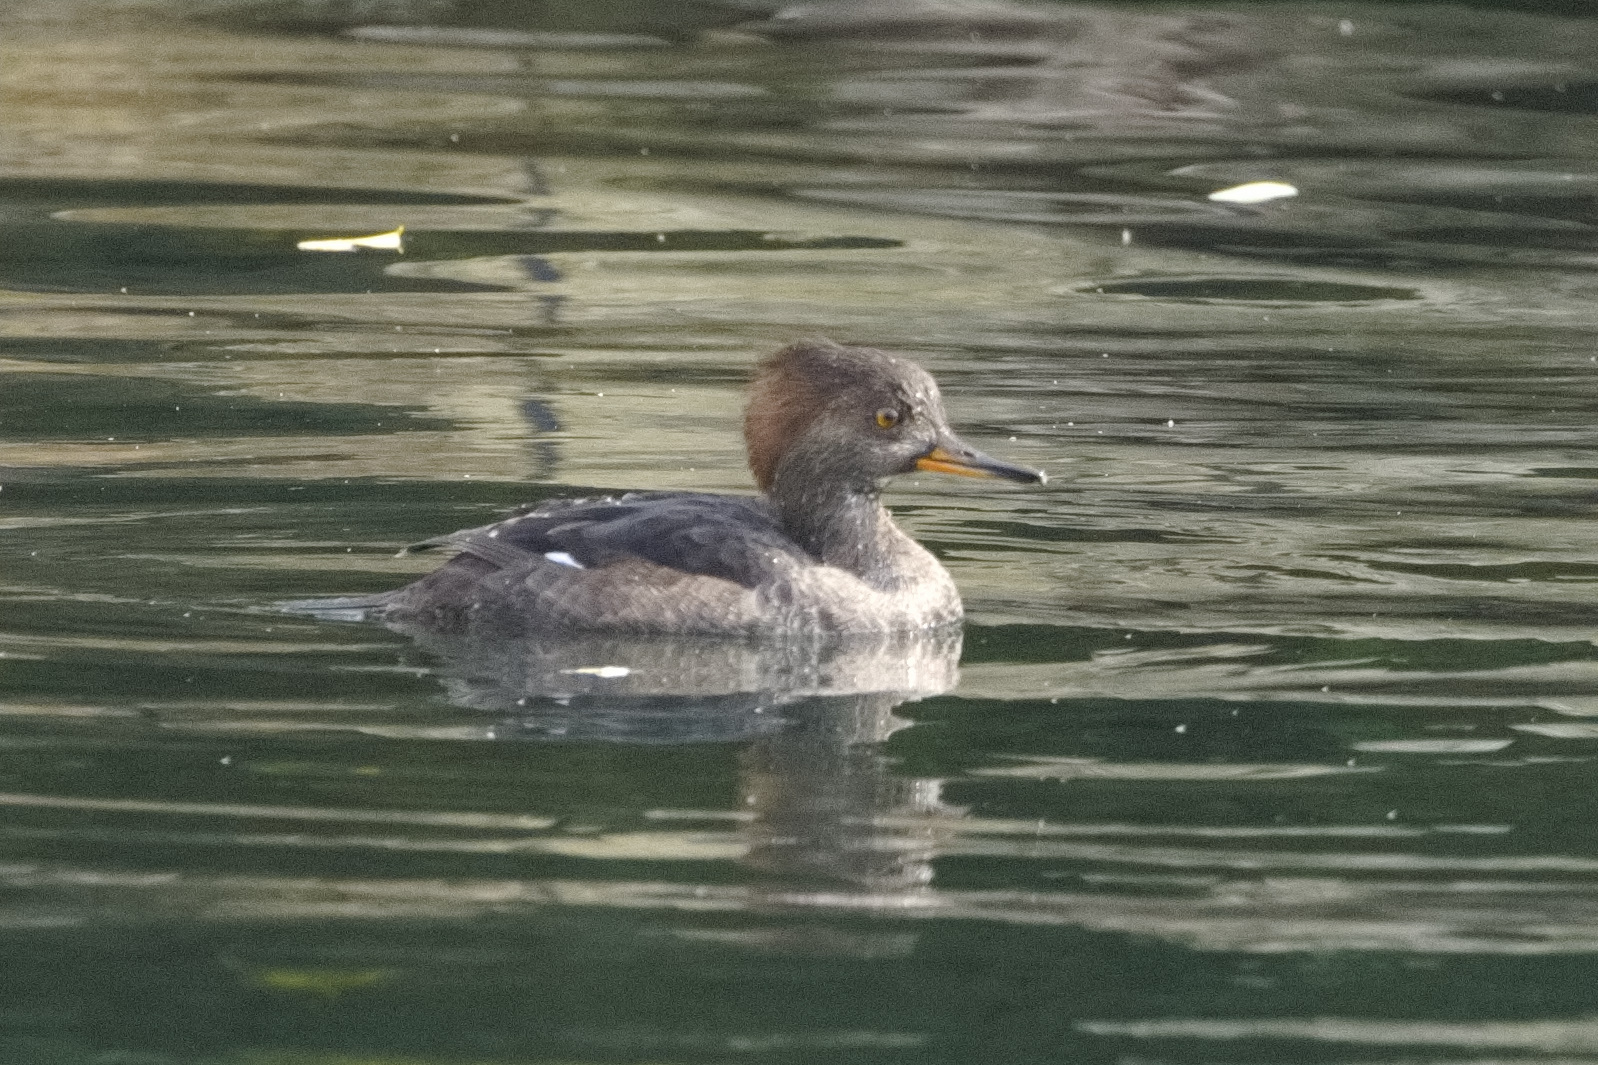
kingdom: Animalia
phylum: Chordata
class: Aves
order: Anseriformes
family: Anatidae
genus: Lophodytes
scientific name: Lophodytes cucullatus
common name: Hooded merganser
